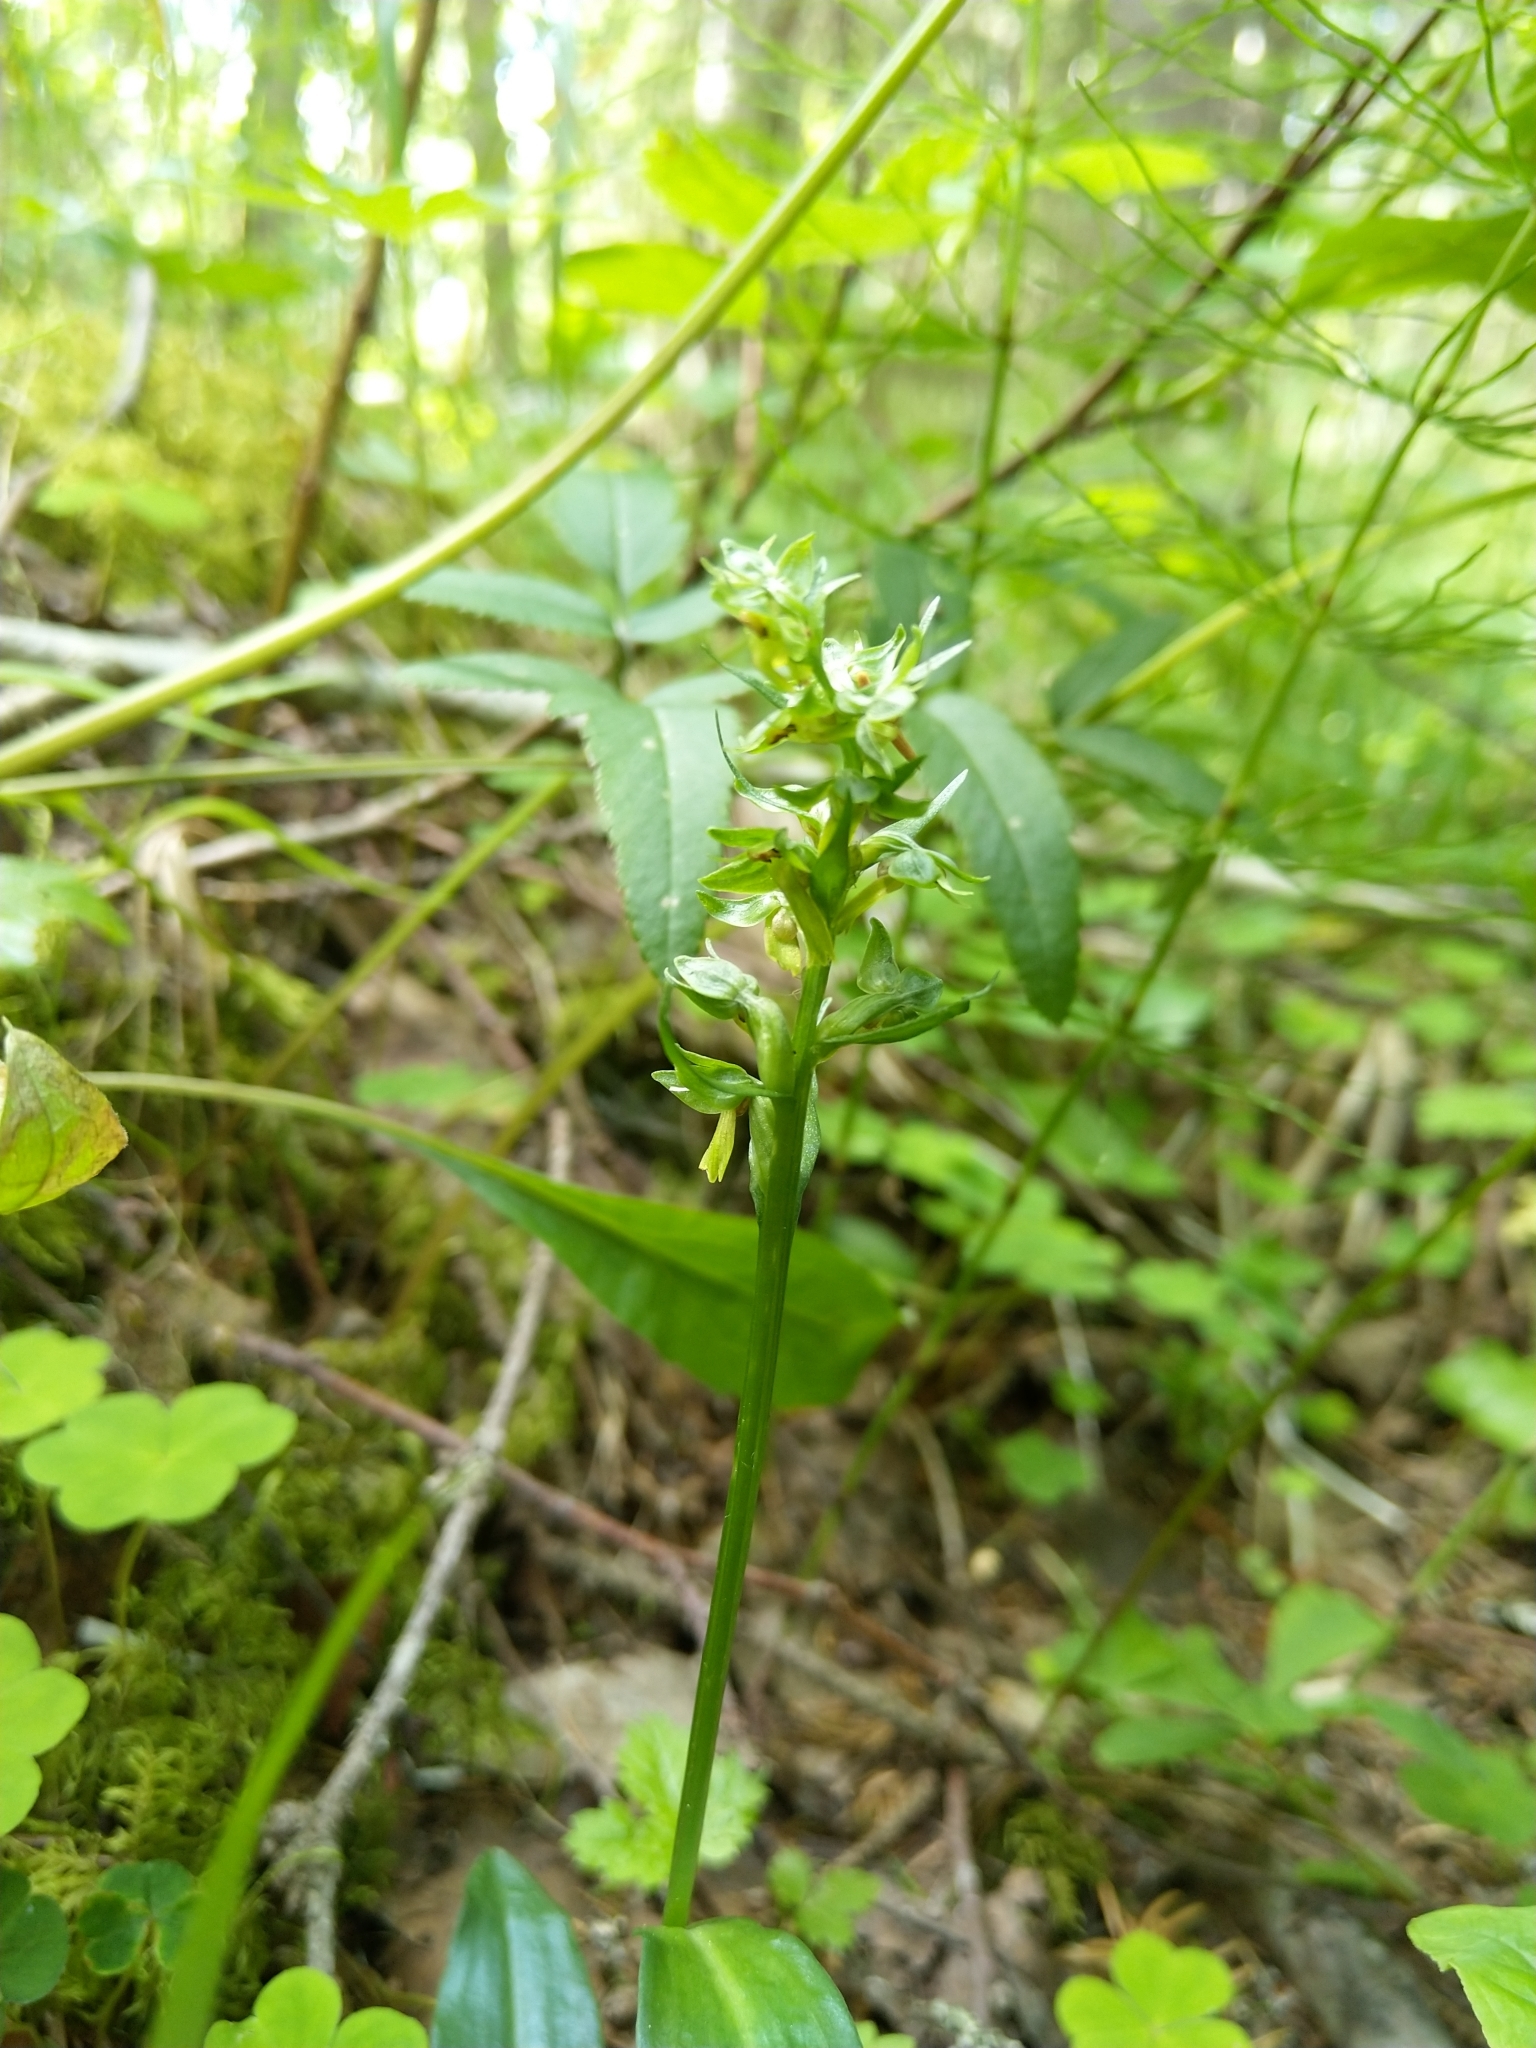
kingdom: Plantae
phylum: Tracheophyta
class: Liliopsida
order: Asparagales
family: Orchidaceae
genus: Dactylorhiza
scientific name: Dactylorhiza viridis
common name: Longbract frog orchid
